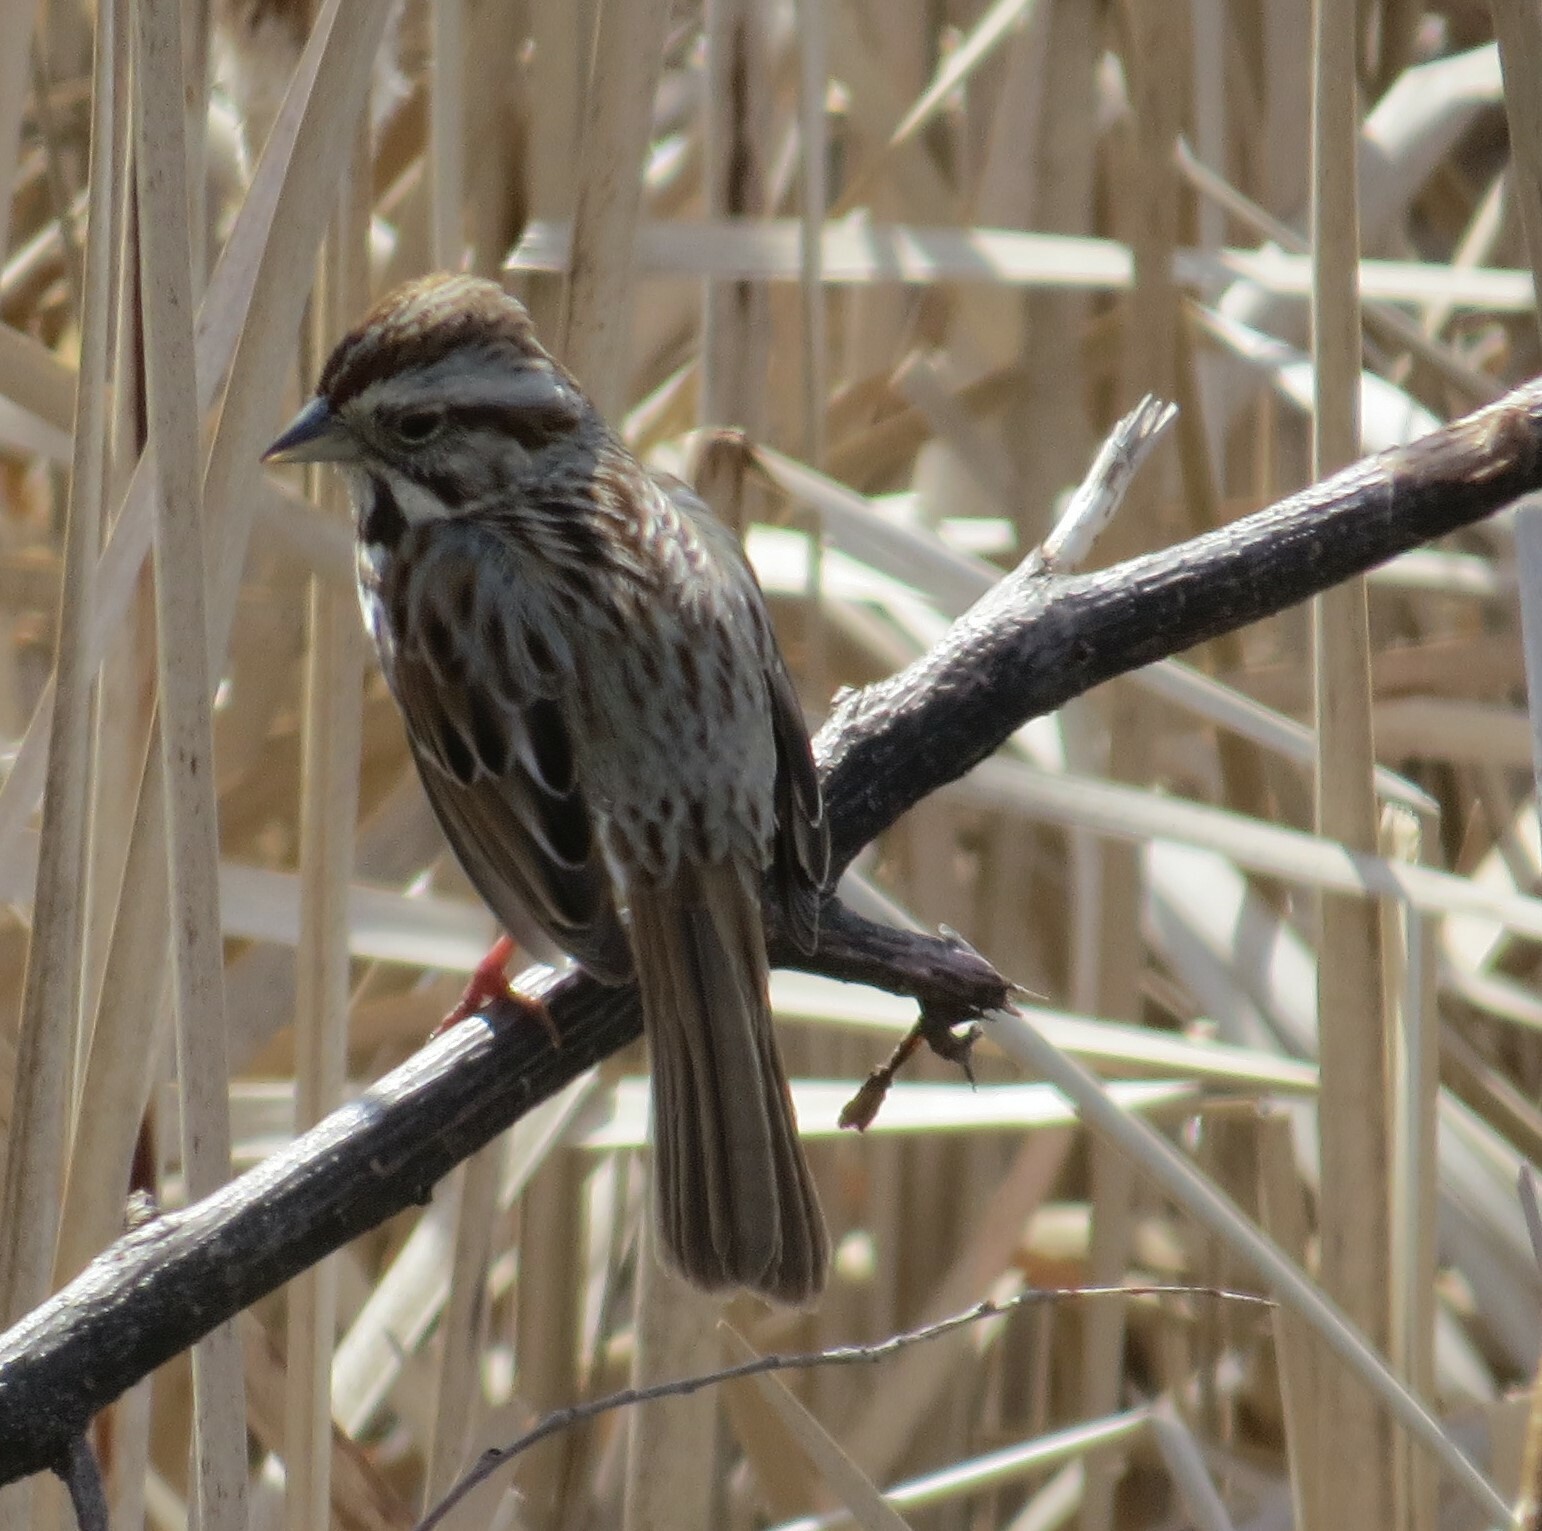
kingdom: Animalia
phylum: Chordata
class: Aves
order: Passeriformes
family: Passerellidae
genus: Melospiza
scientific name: Melospiza melodia
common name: Song sparrow
